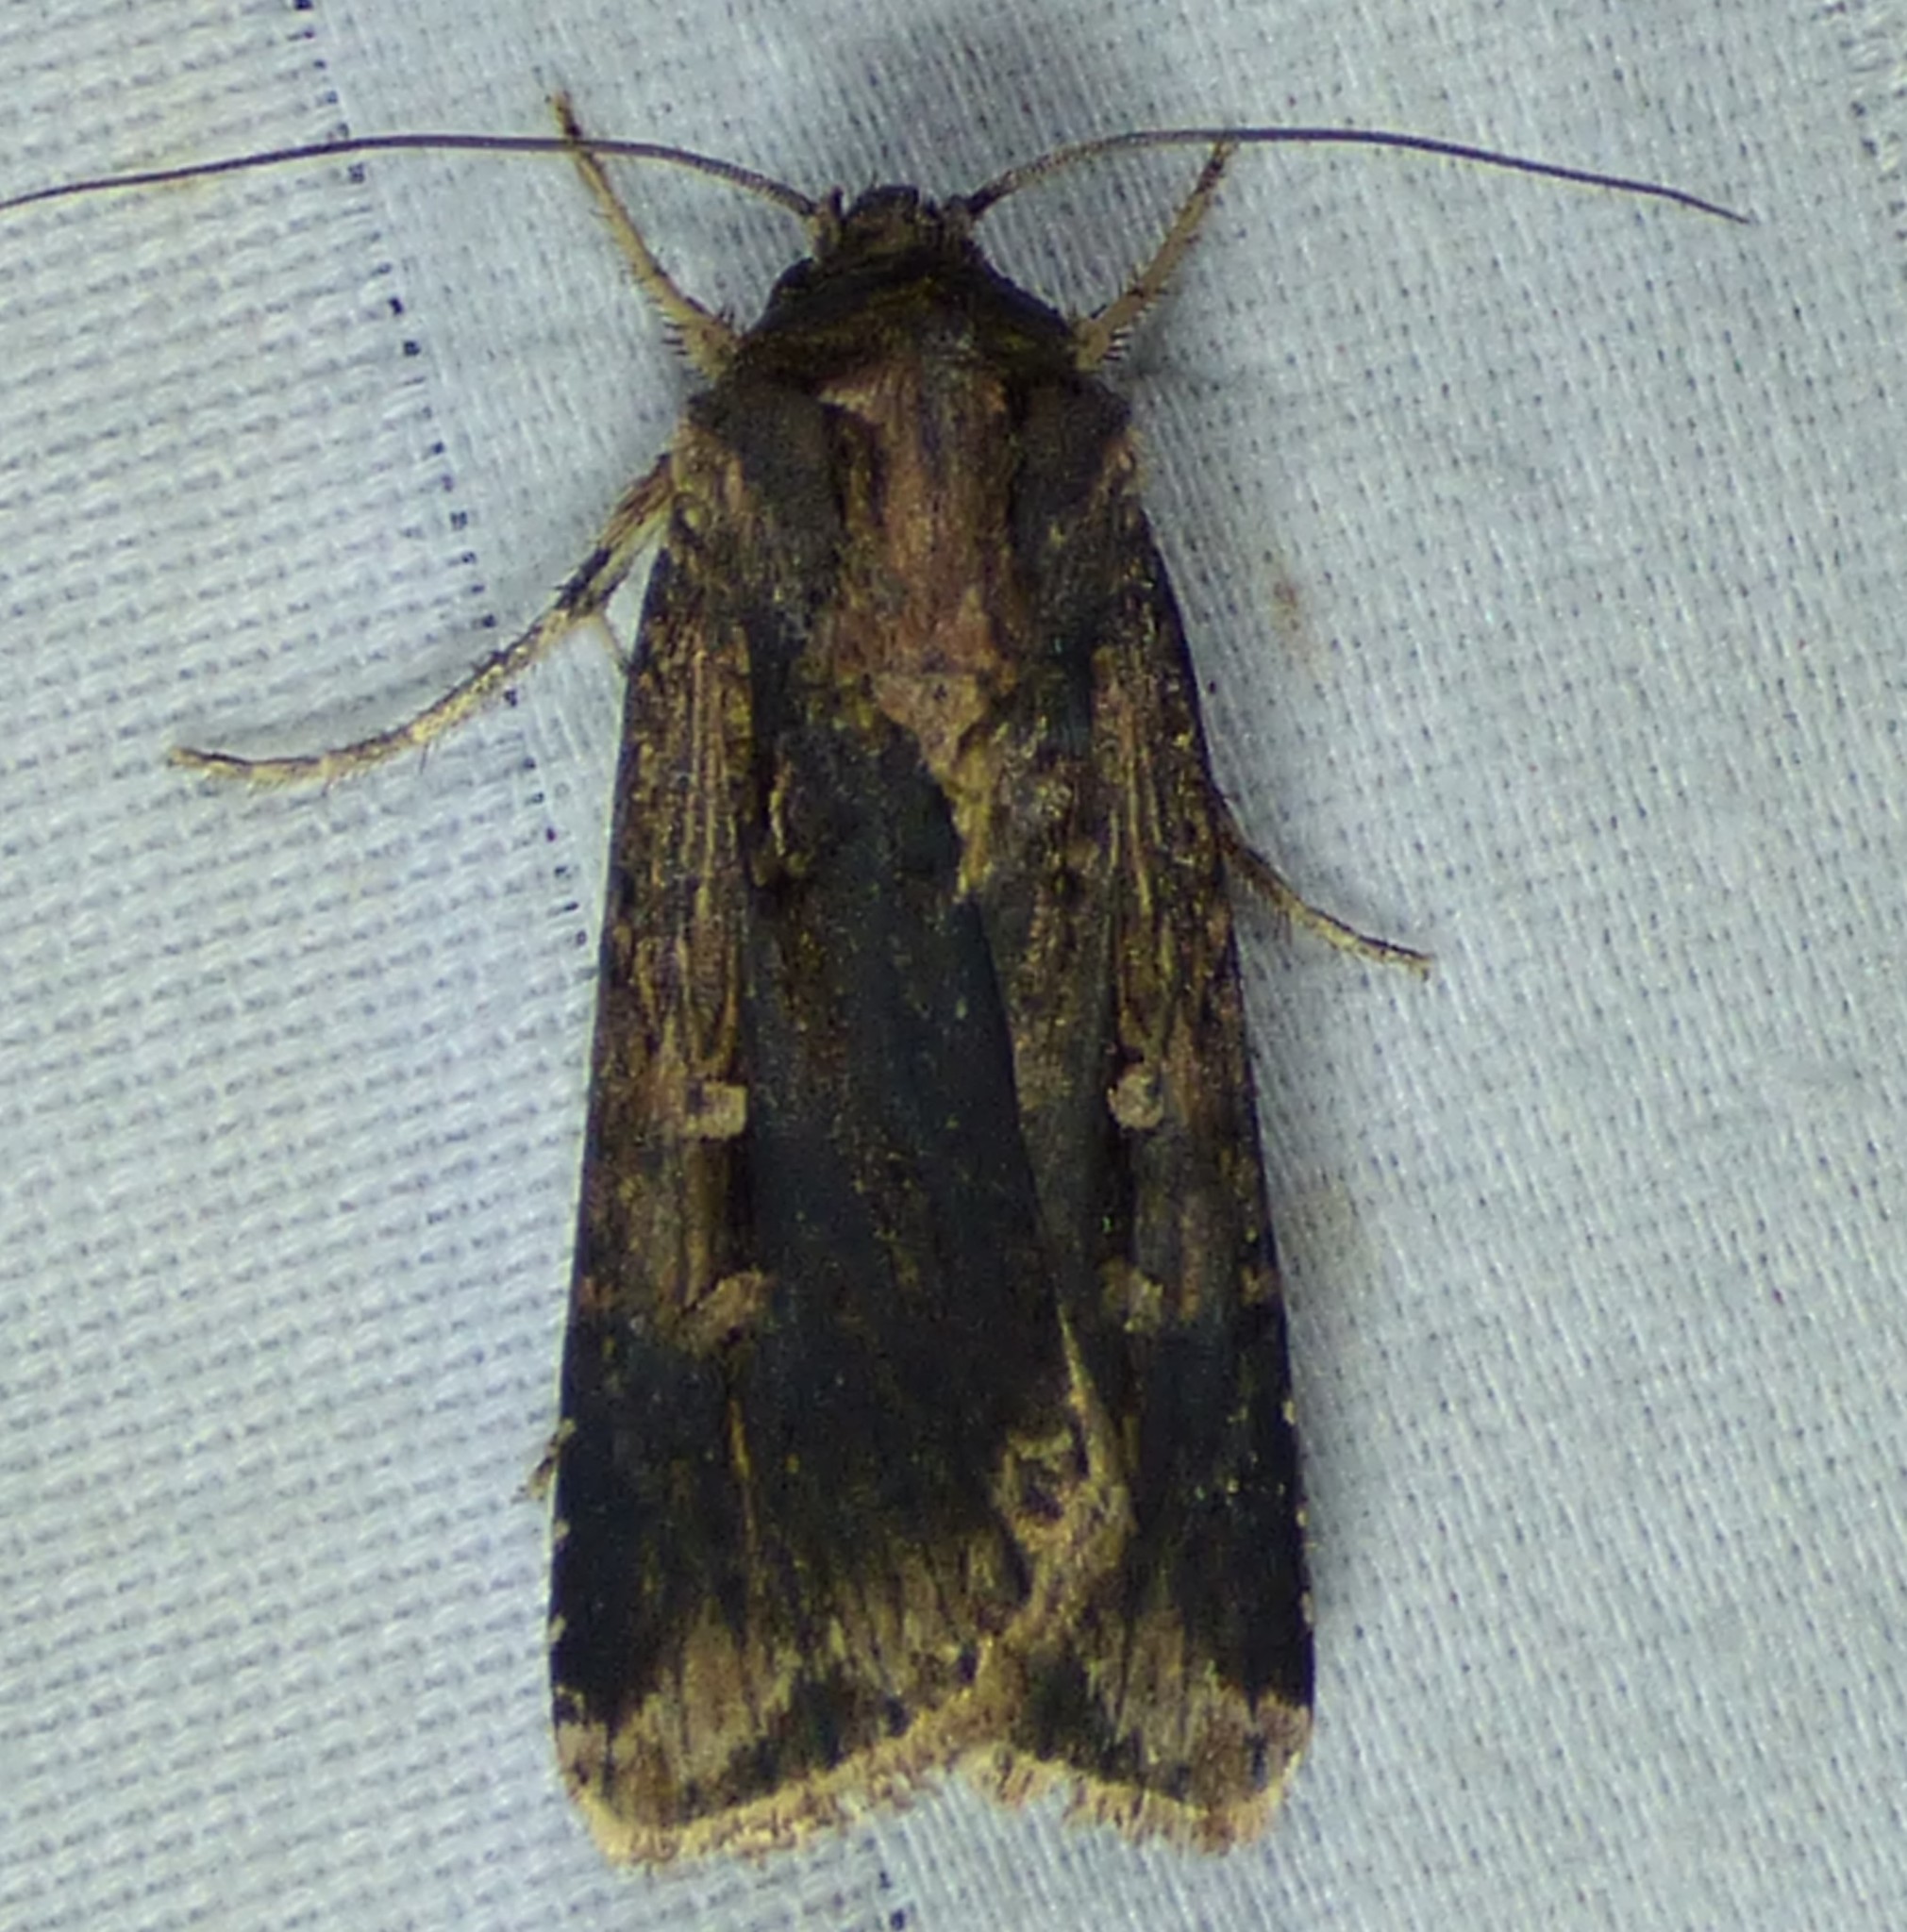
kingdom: Animalia
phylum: Arthropoda
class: Insecta
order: Lepidoptera
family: Noctuidae
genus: Feltia
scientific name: Feltia subterranea
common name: Granulate cutworm
